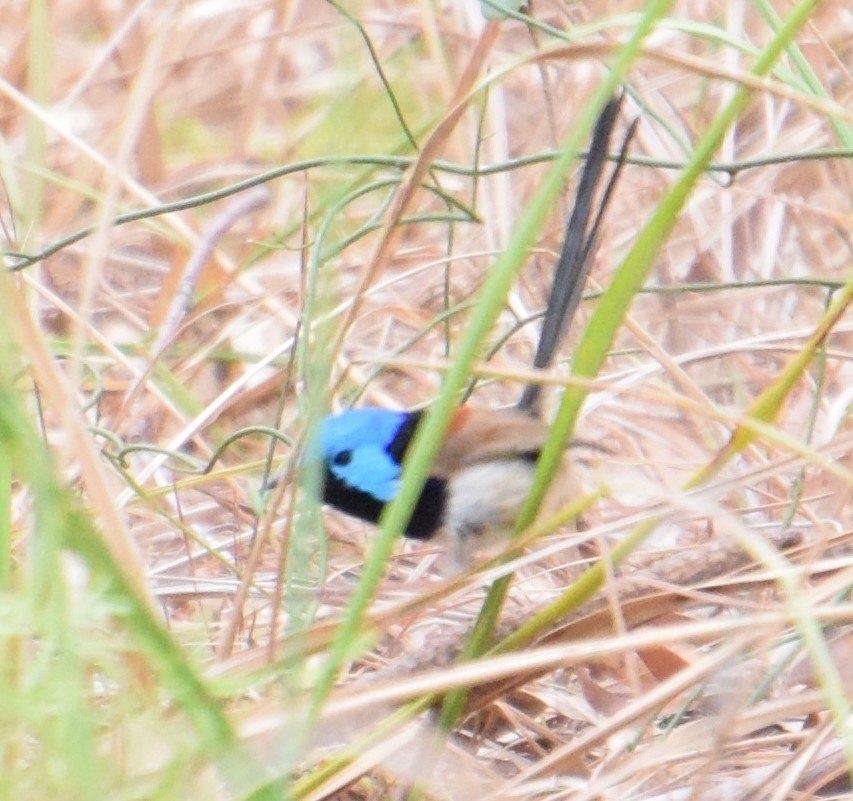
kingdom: Animalia
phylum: Chordata
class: Aves
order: Passeriformes
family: Maluridae
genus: Malurus
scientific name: Malurus lamberti
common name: Variegated fairywren
